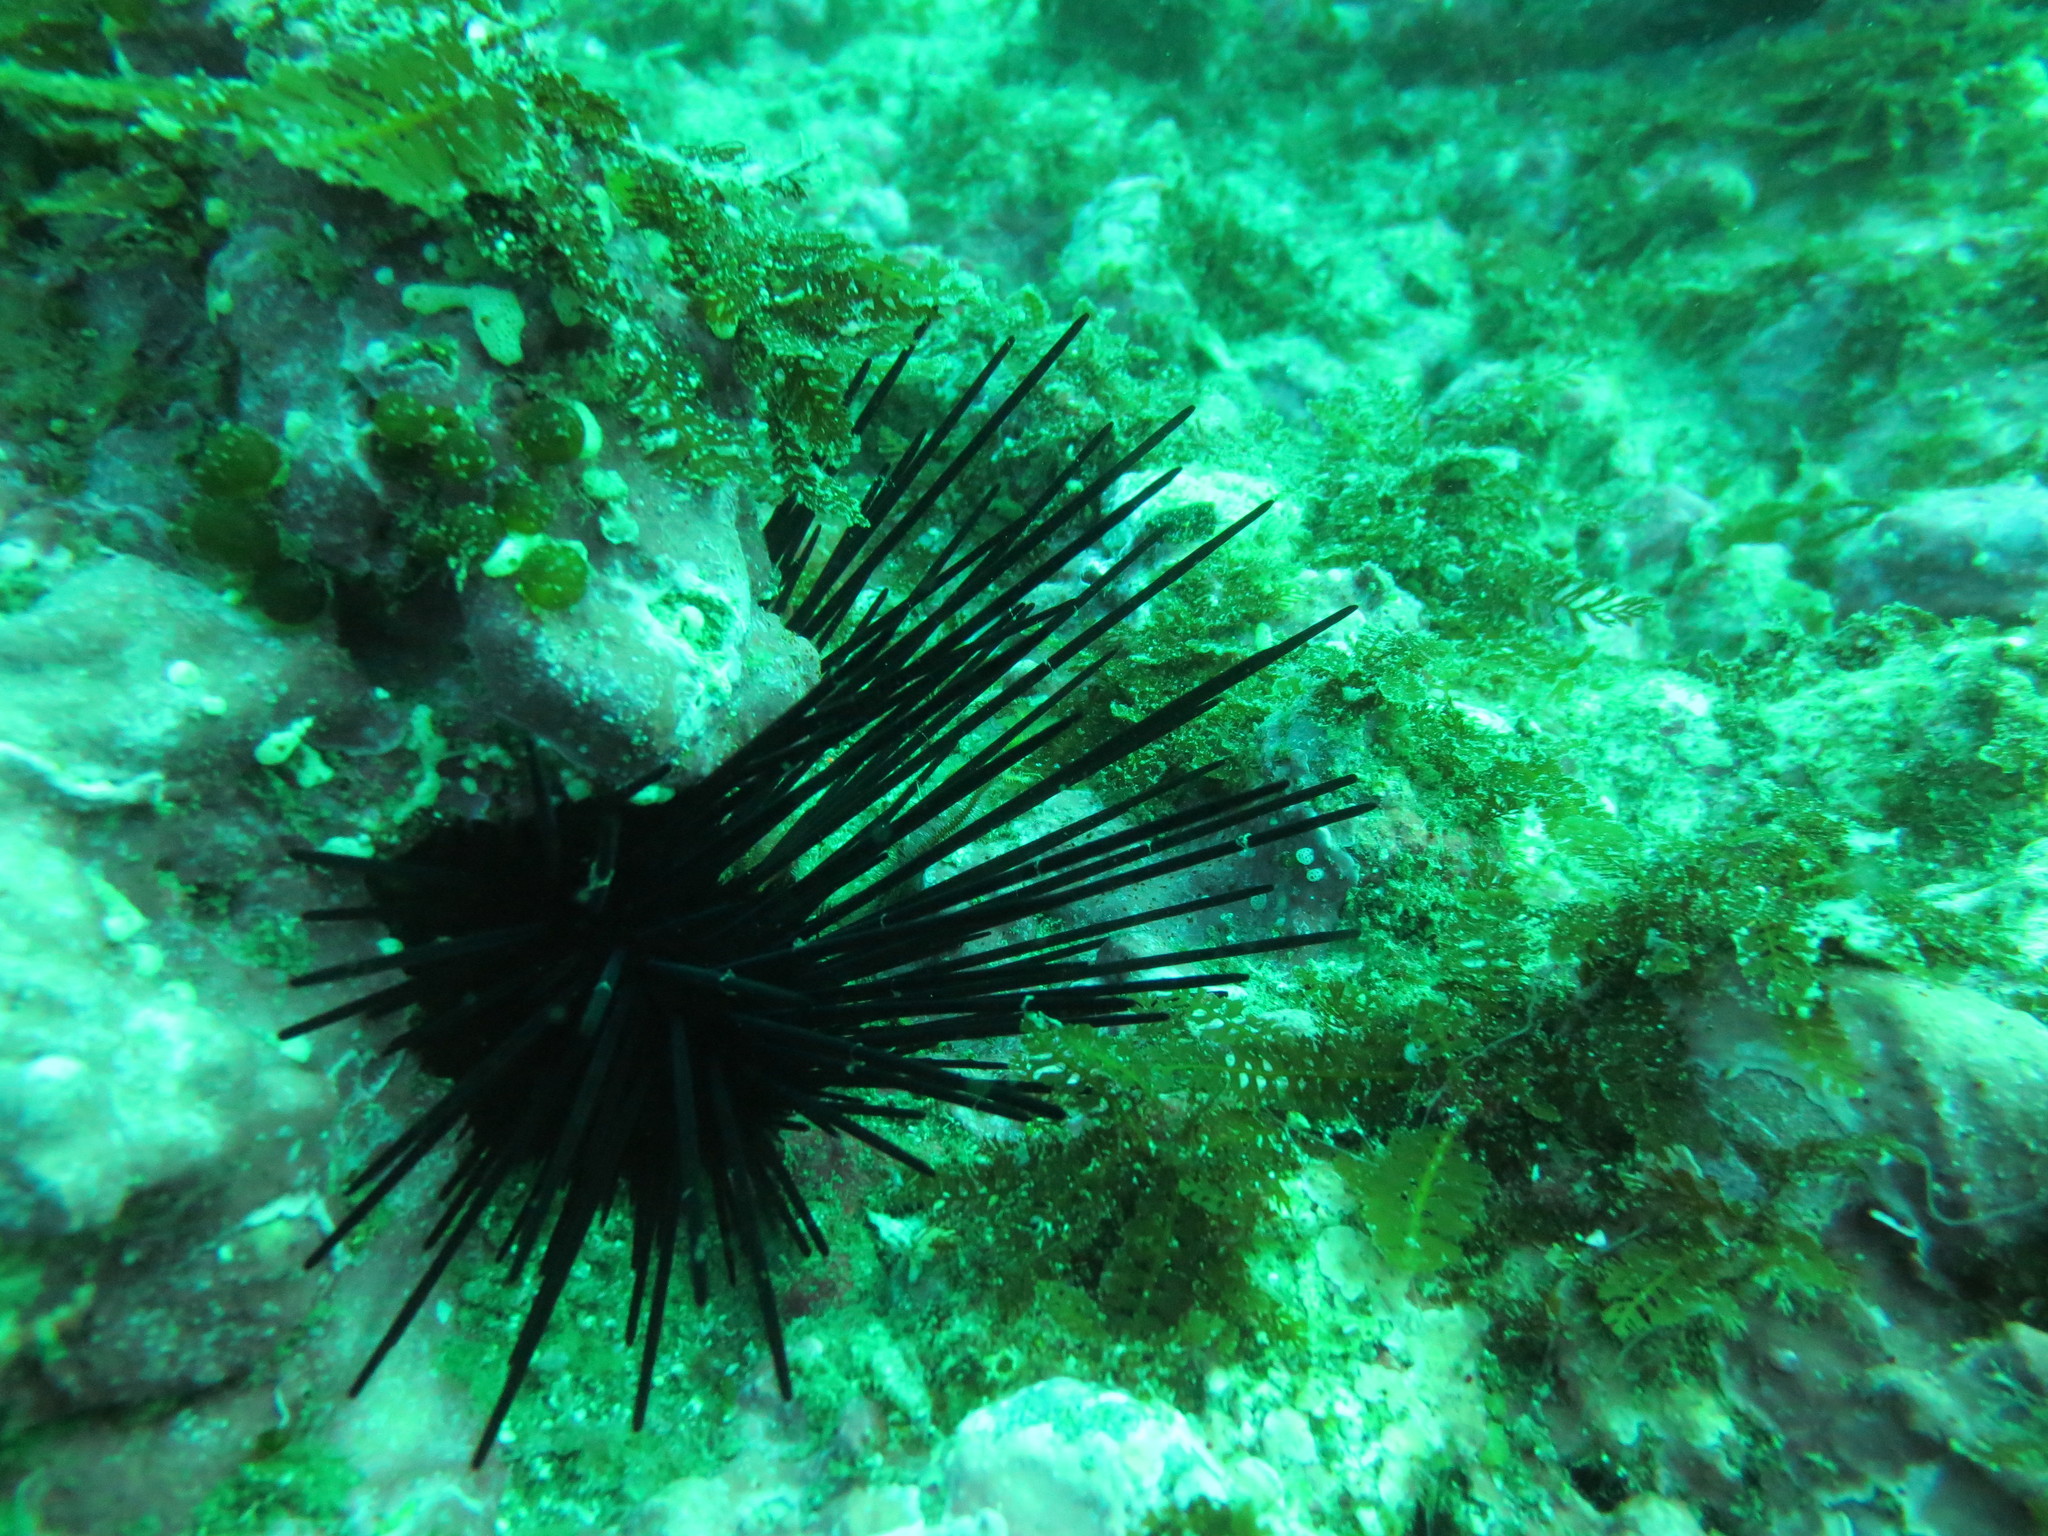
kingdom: Animalia
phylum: Echinodermata
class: Echinoidea
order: Diadematoida
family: Diadematidae
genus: Centrostephanus
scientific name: Centrostephanus coronatus
